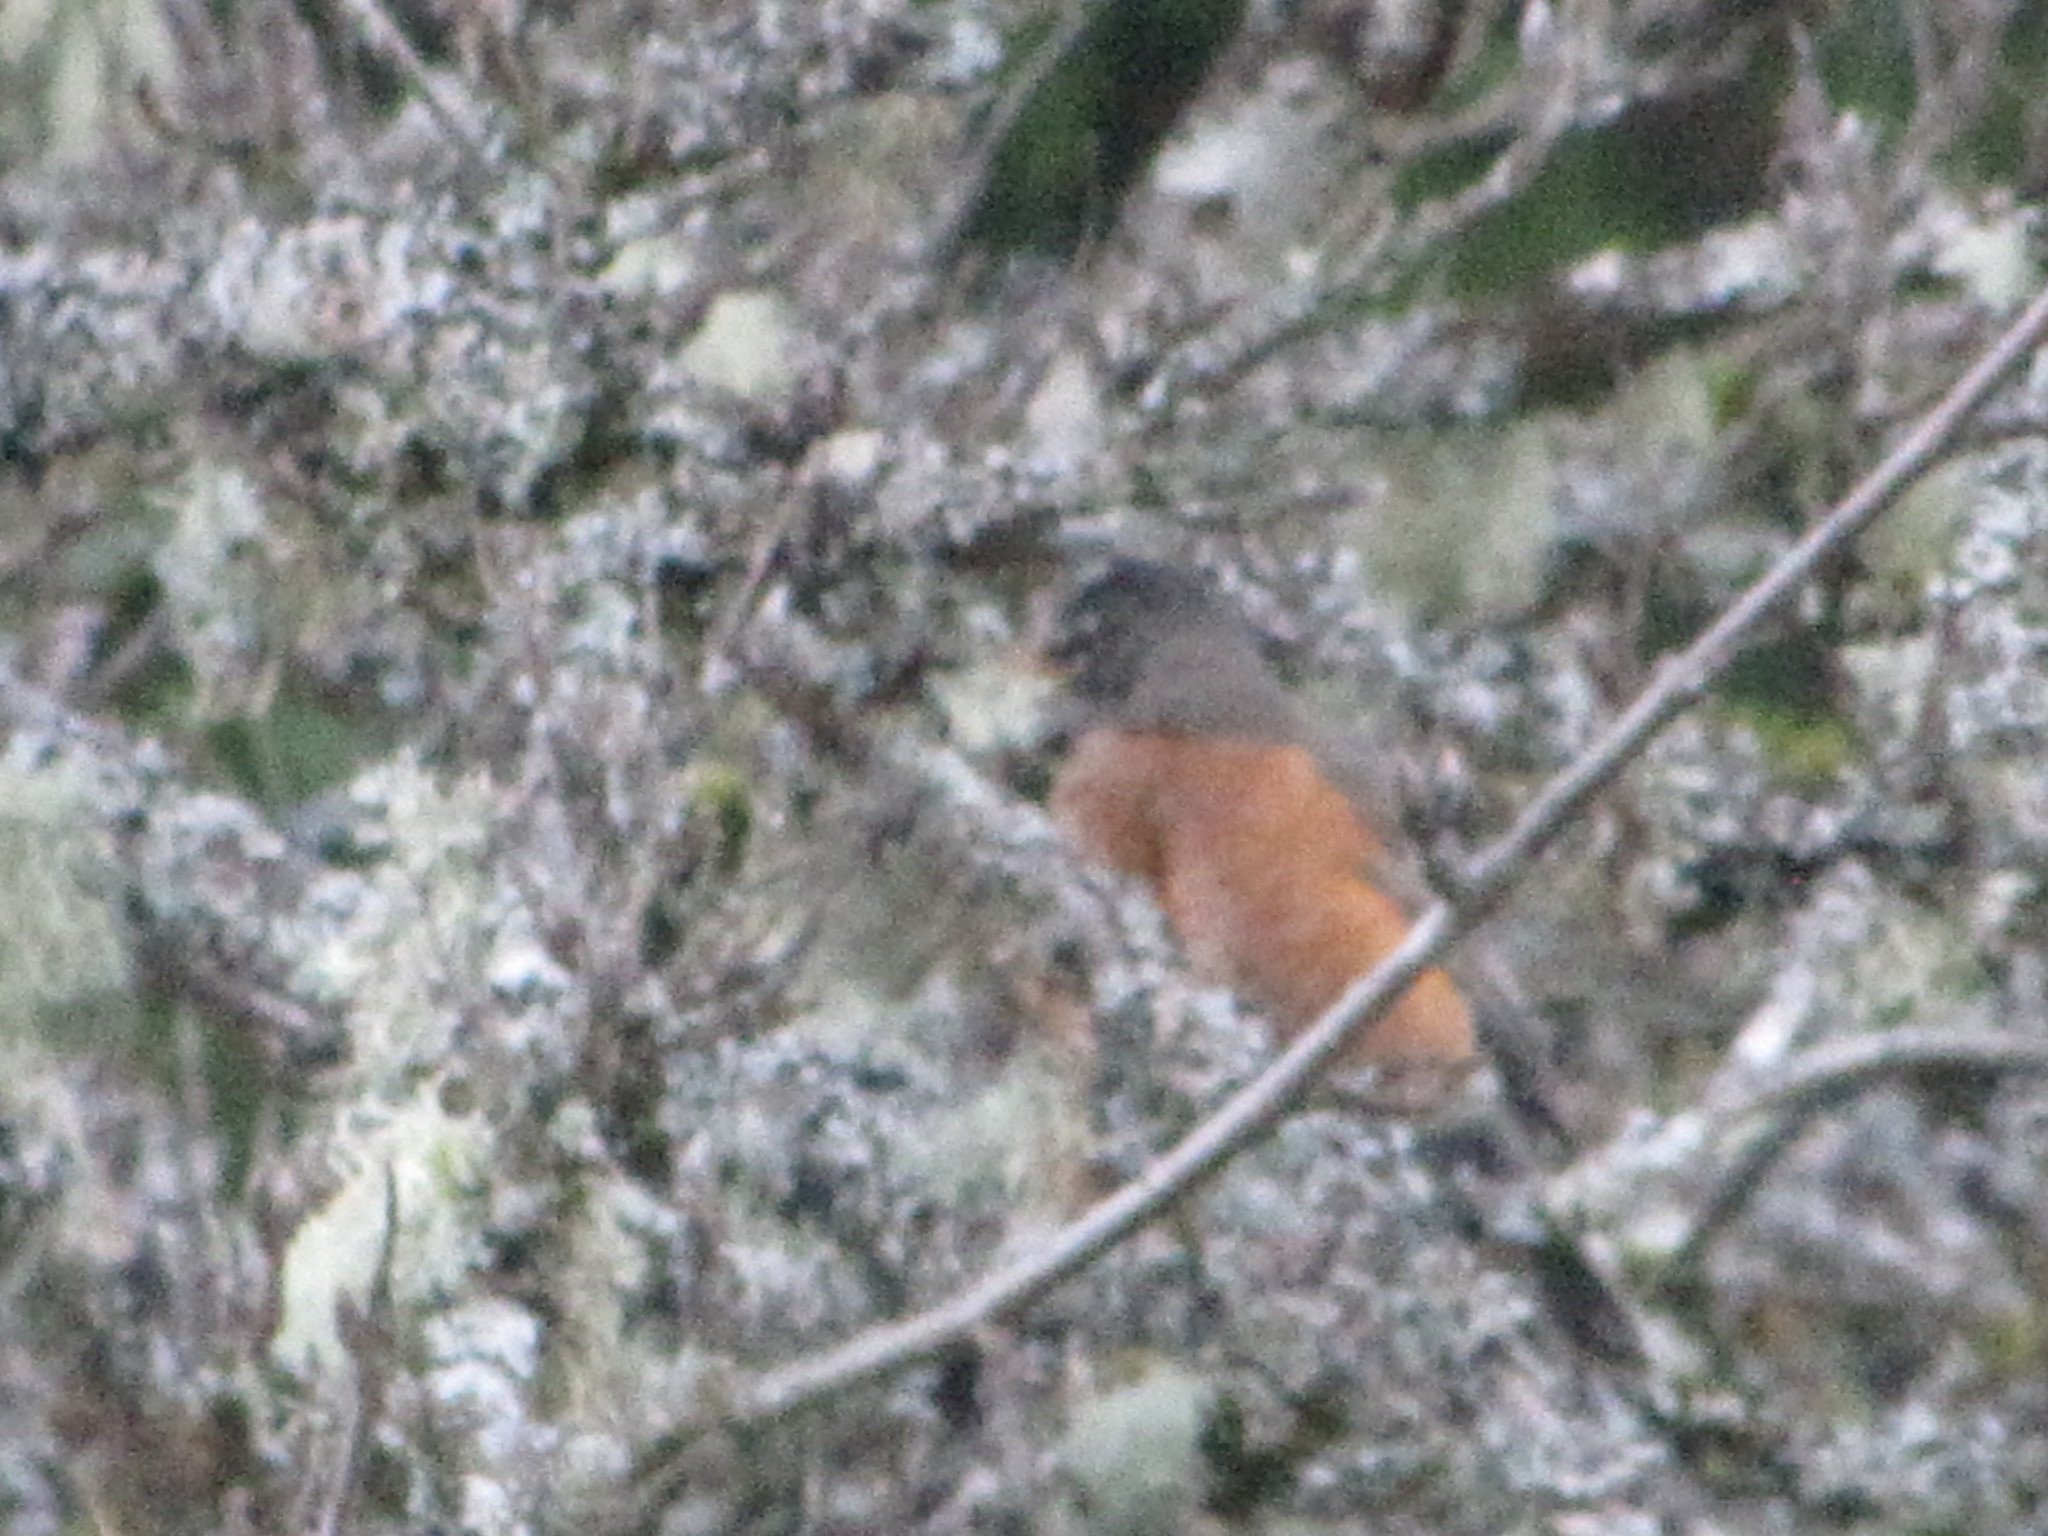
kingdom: Animalia
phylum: Chordata
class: Aves
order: Passeriformes
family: Turdidae
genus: Turdus
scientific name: Turdus migratorius
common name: American robin
